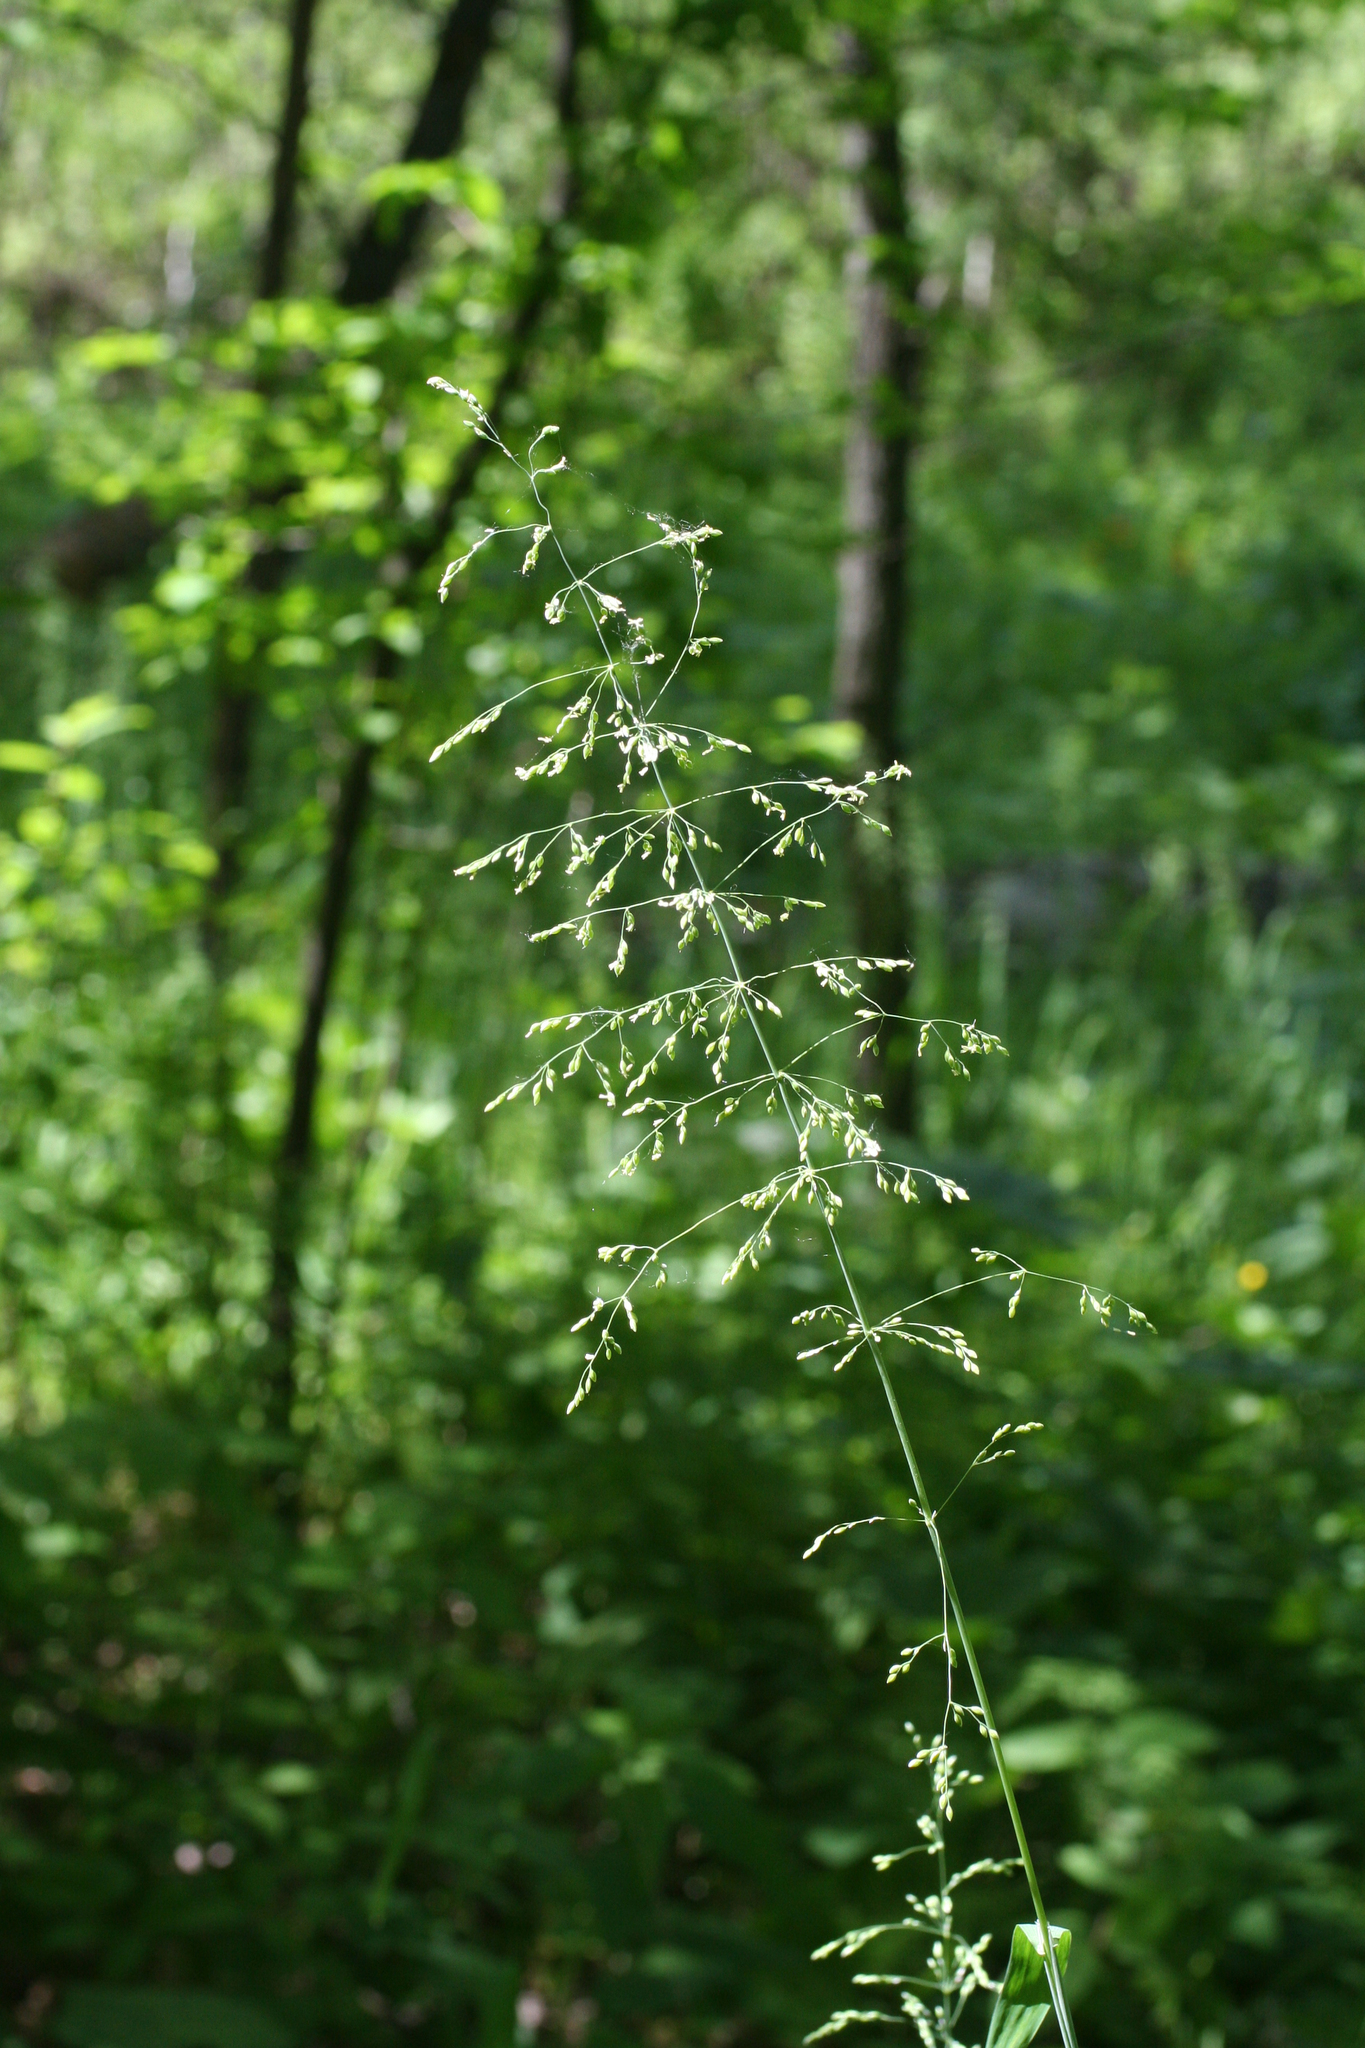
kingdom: Plantae
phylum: Tracheophyta
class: Liliopsida
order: Poales
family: Poaceae
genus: Milium
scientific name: Milium effusum
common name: Wood millet
